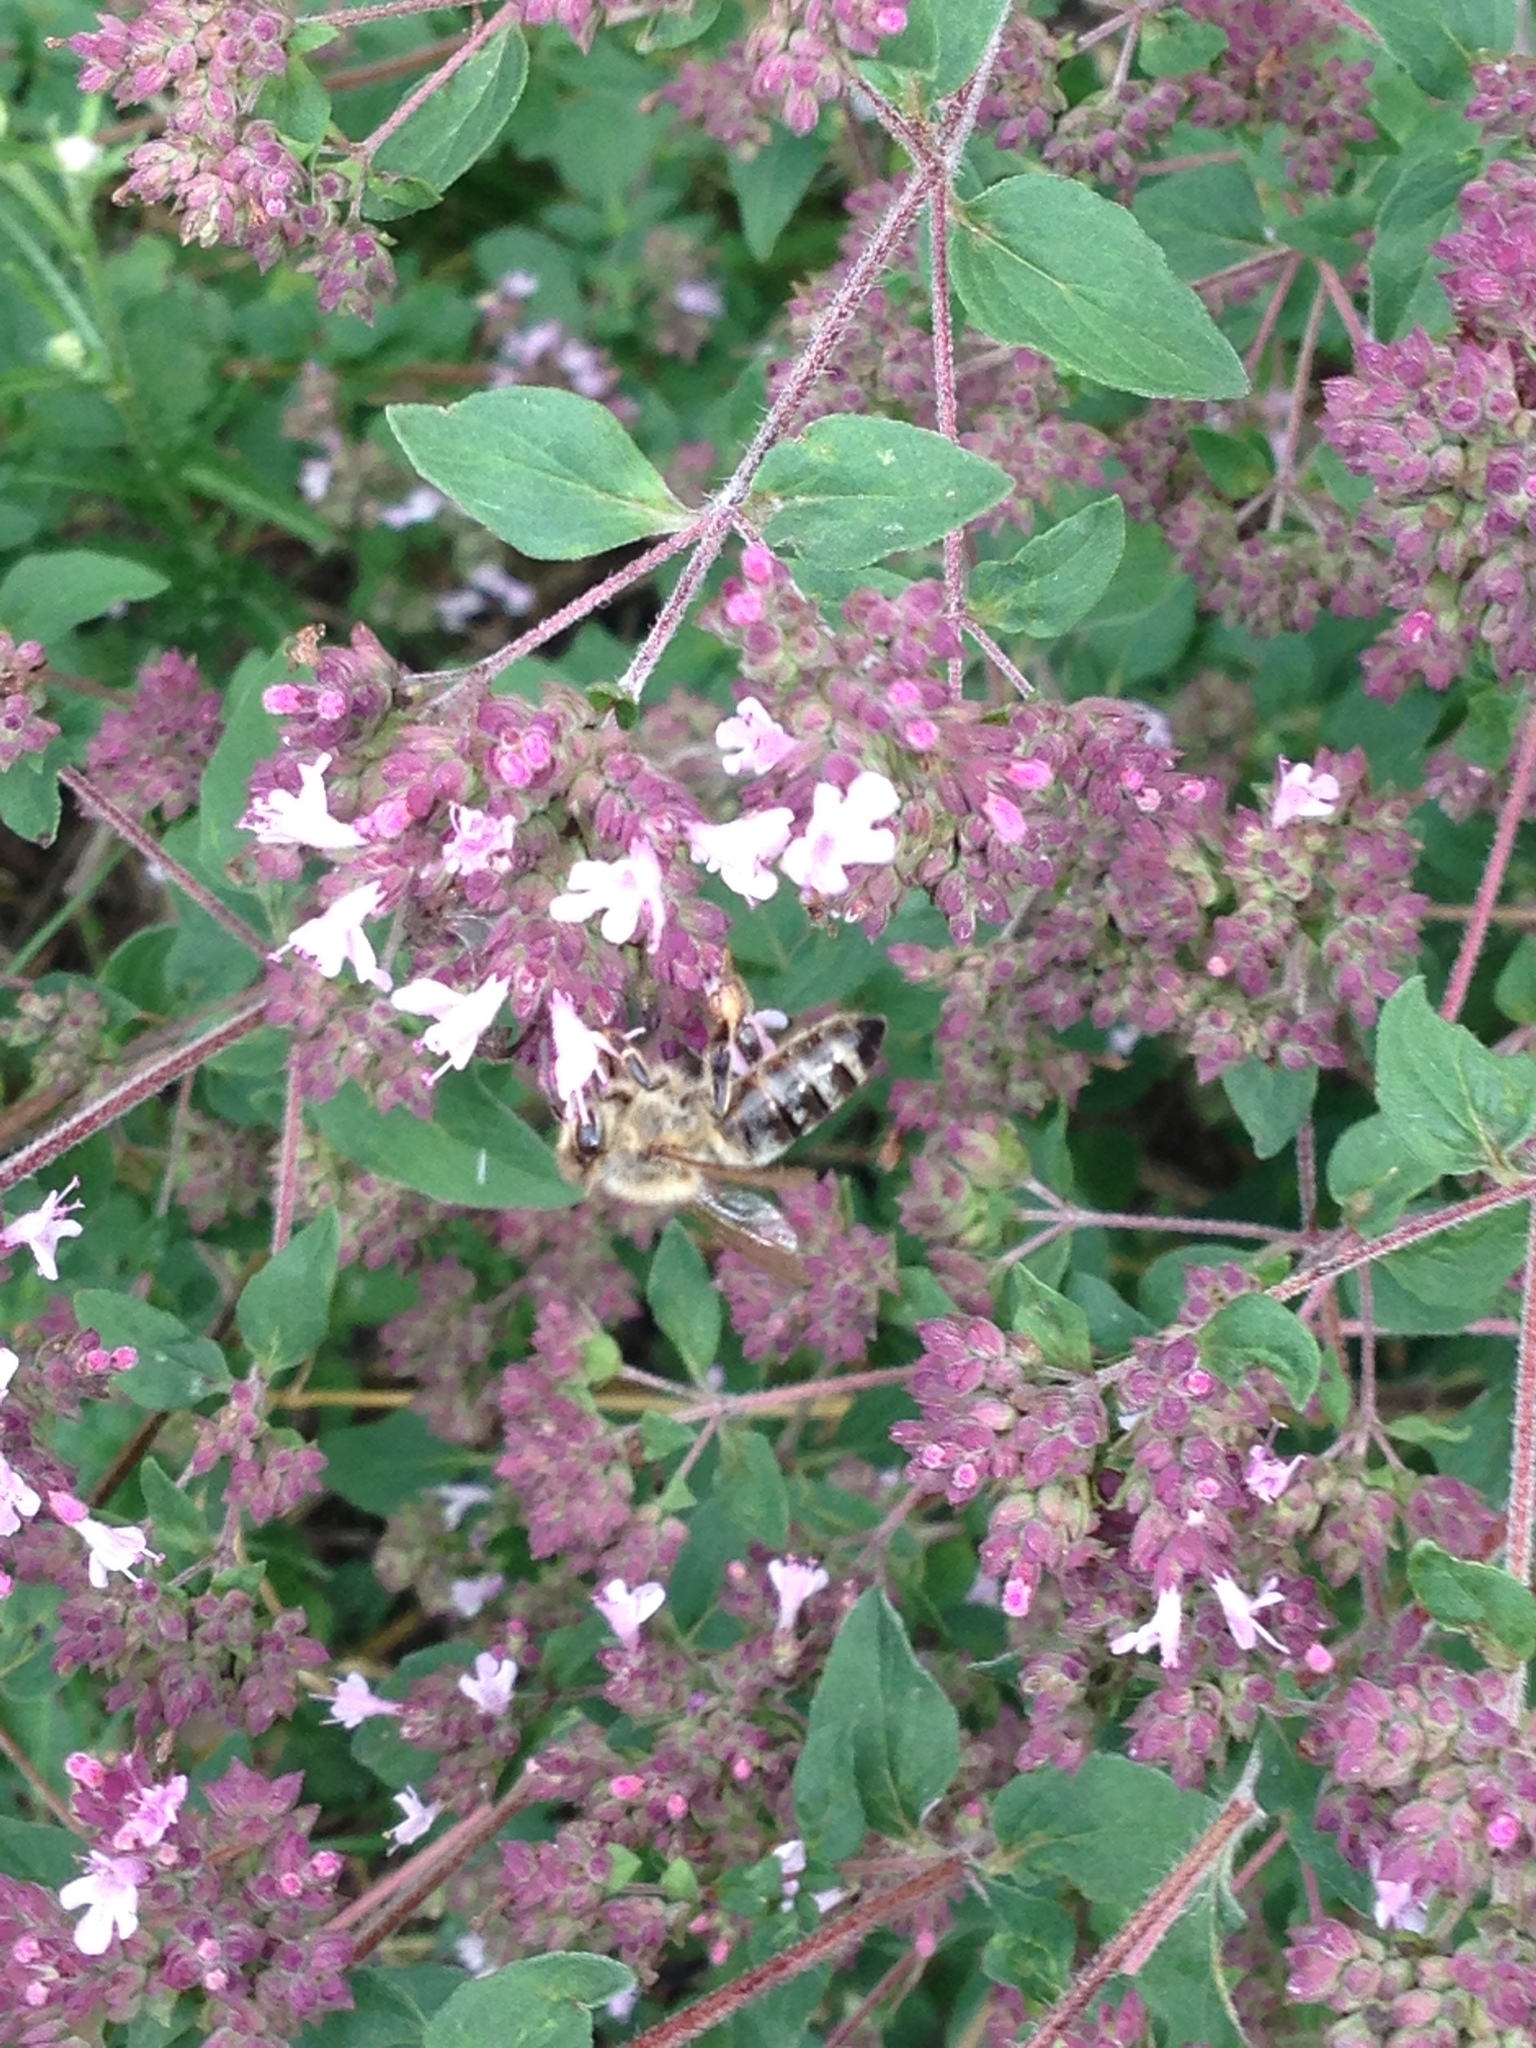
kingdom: Animalia
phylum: Arthropoda
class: Insecta
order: Hymenoptera
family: Apidae
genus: Apis
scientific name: Apis mellifera
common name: Honey bee
